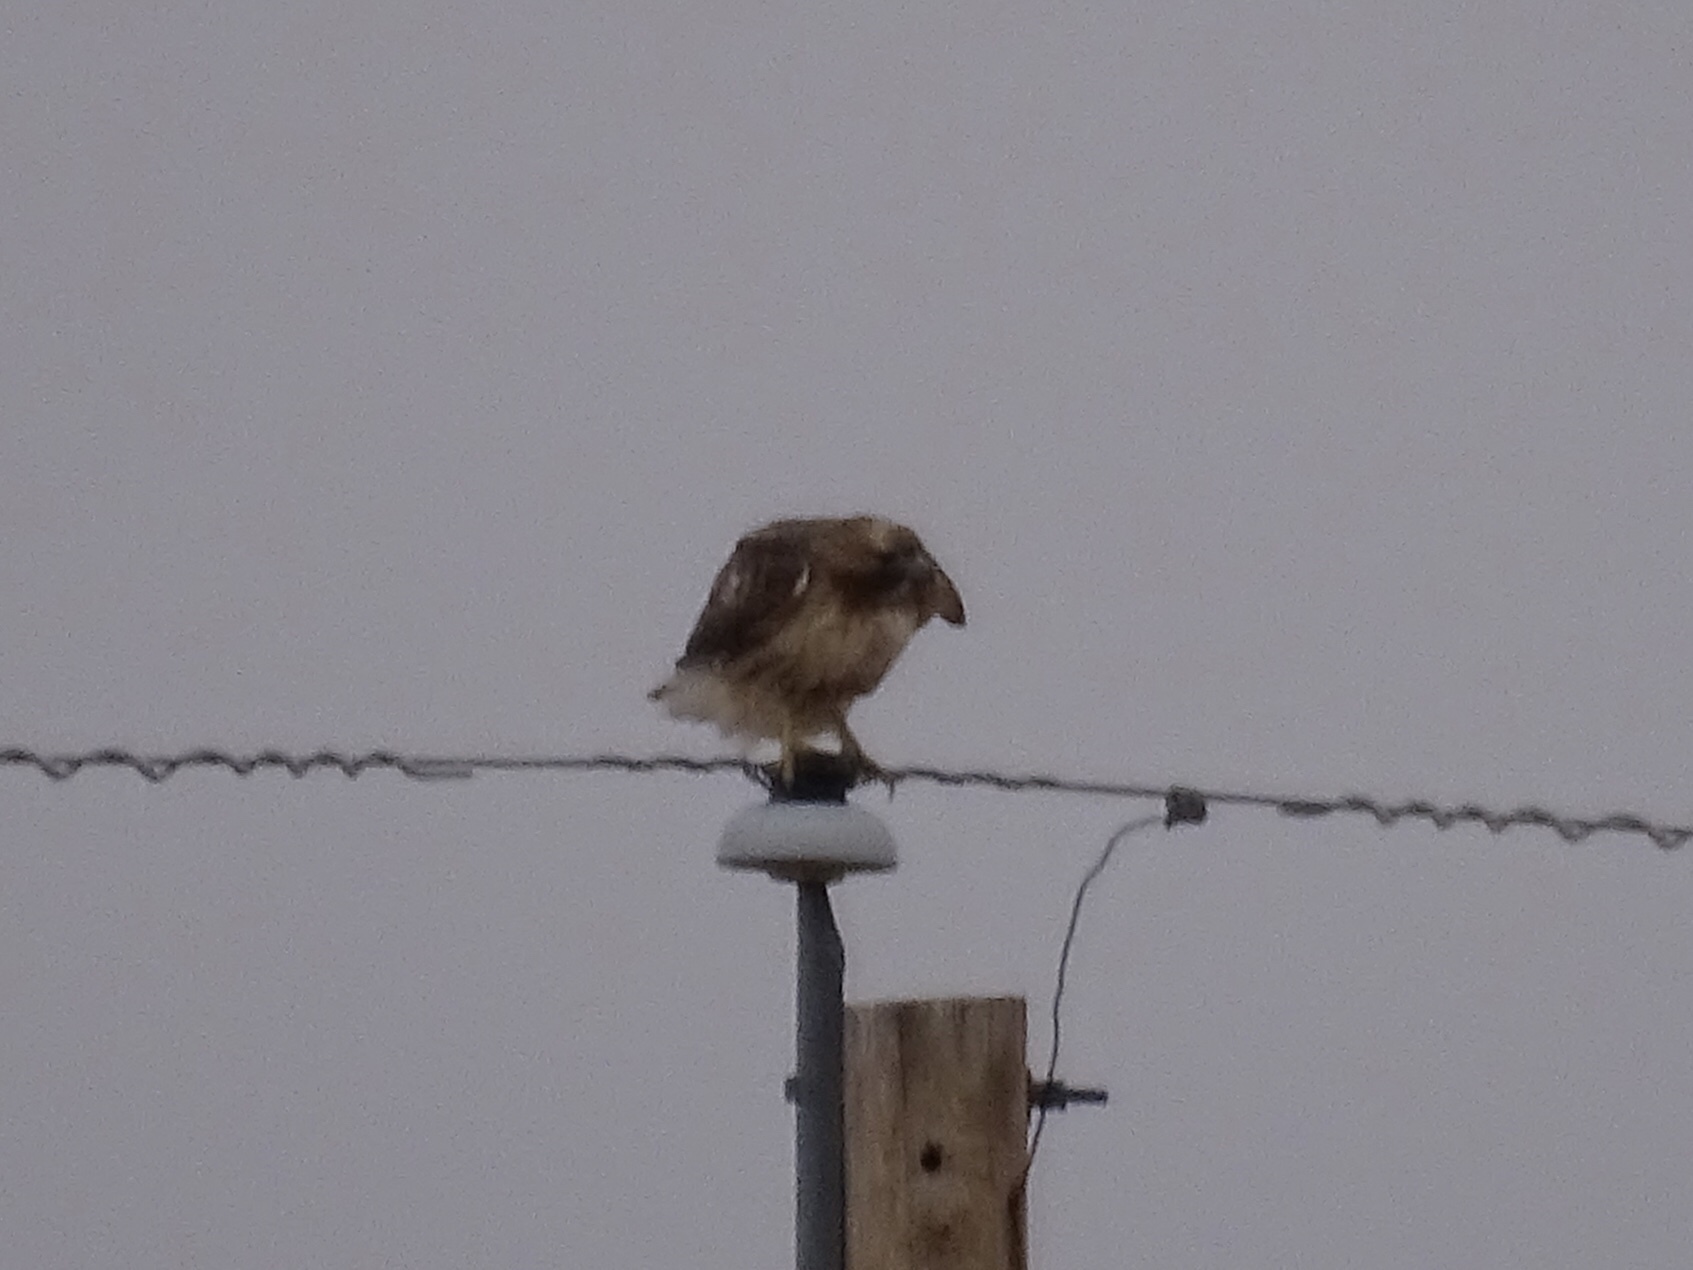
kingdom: Animalia
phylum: Chordata
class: Aves
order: Accipitriformes
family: Accipitridae
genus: Buteo
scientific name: Buteo jamaicensis
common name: Red-tailed hawk
